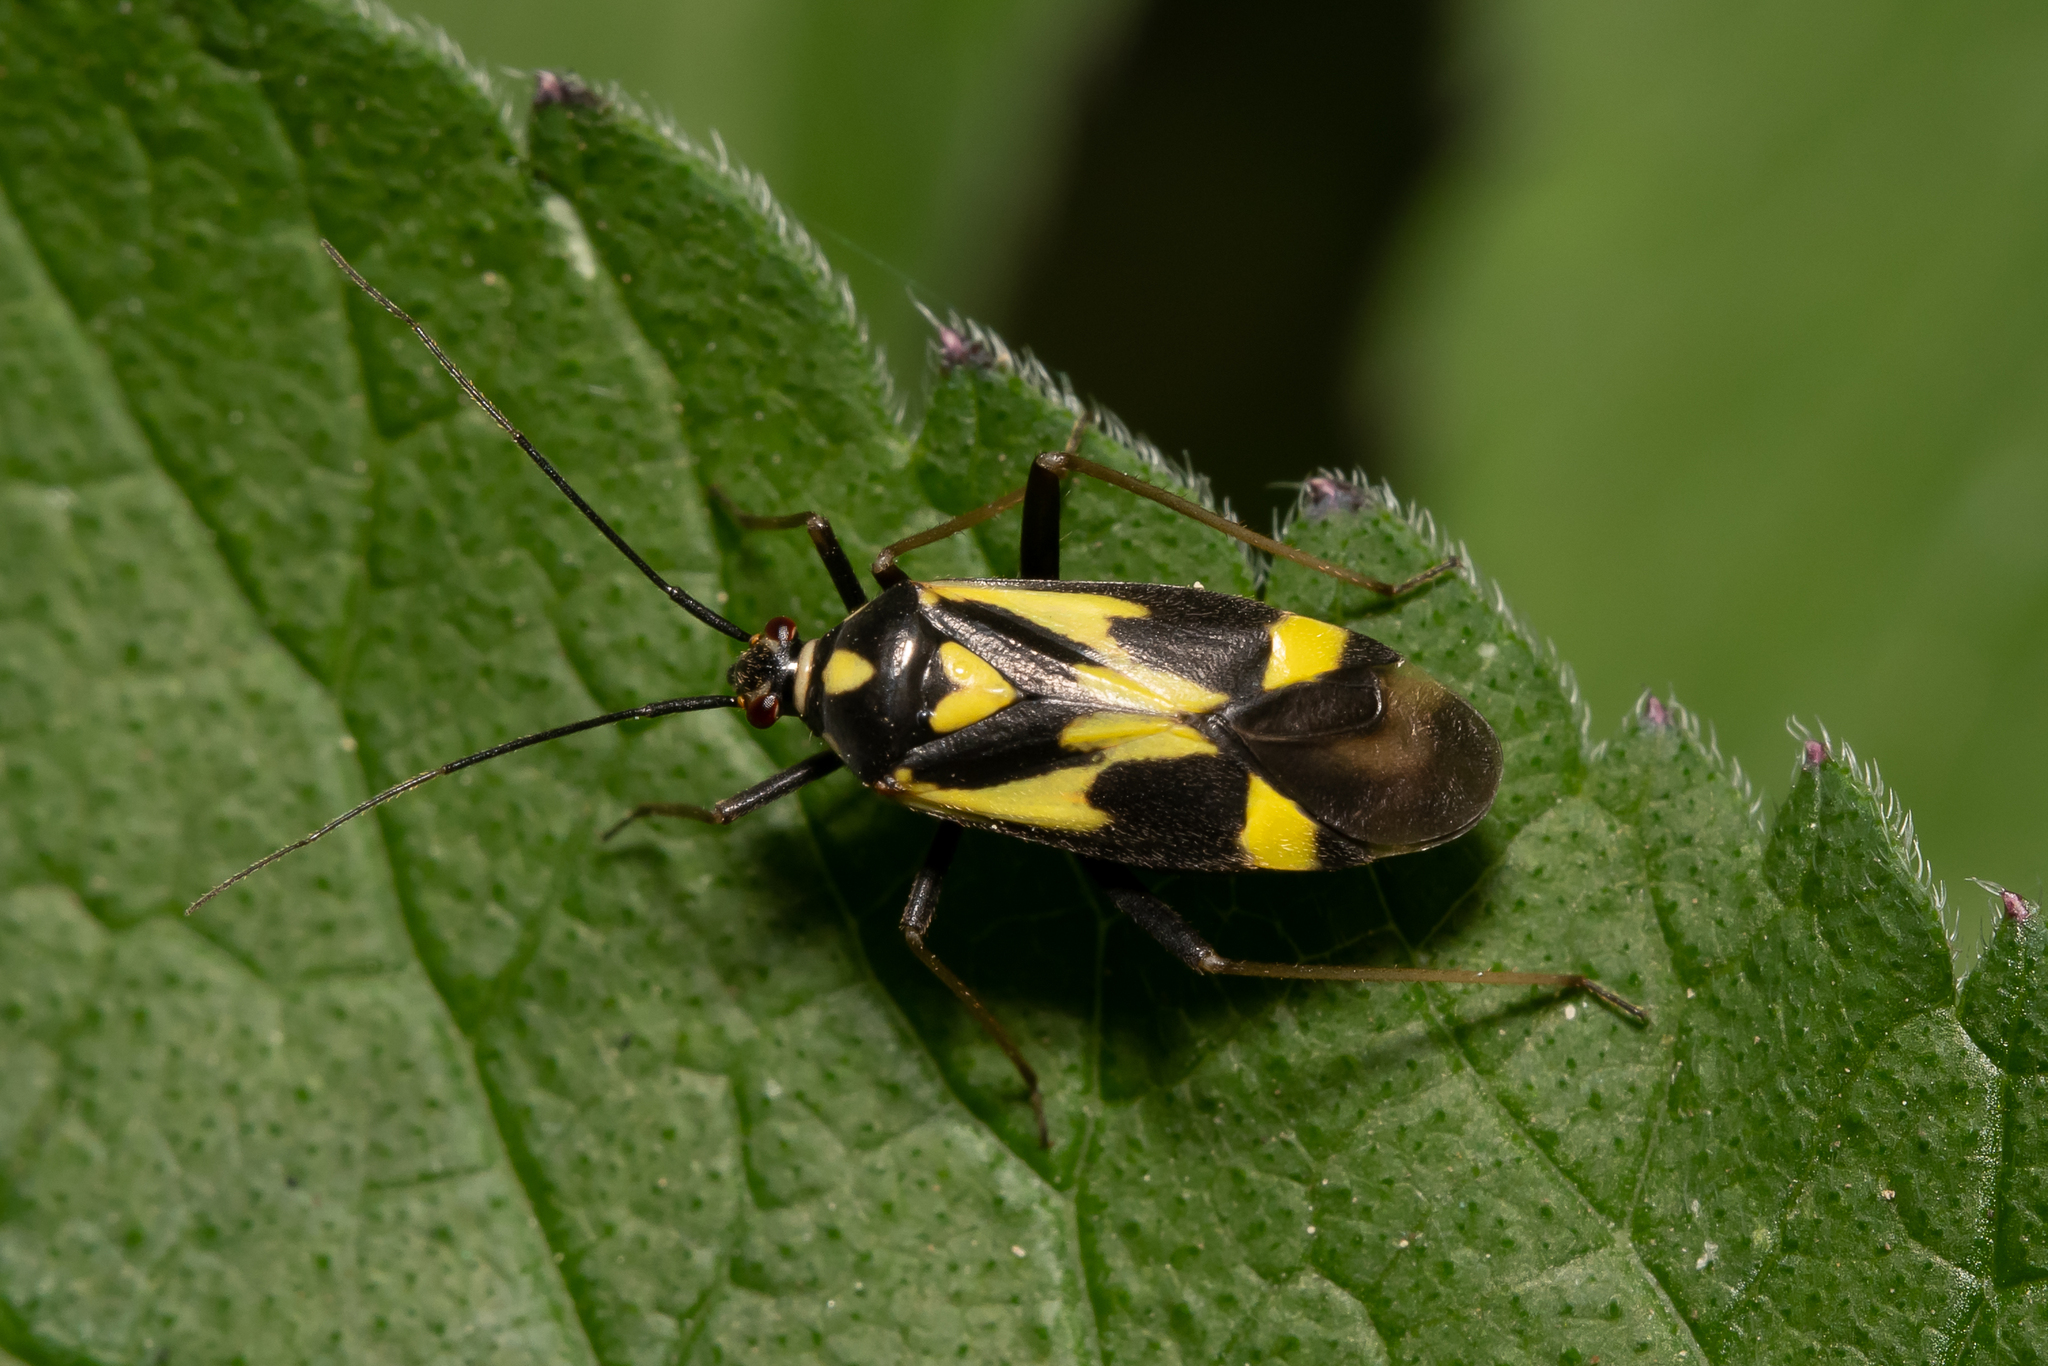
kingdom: Animalia
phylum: Arthropoda
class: Insecta
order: Hemiptera
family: Miridae
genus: Grypocoris
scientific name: Grypocoris sexguttatus
